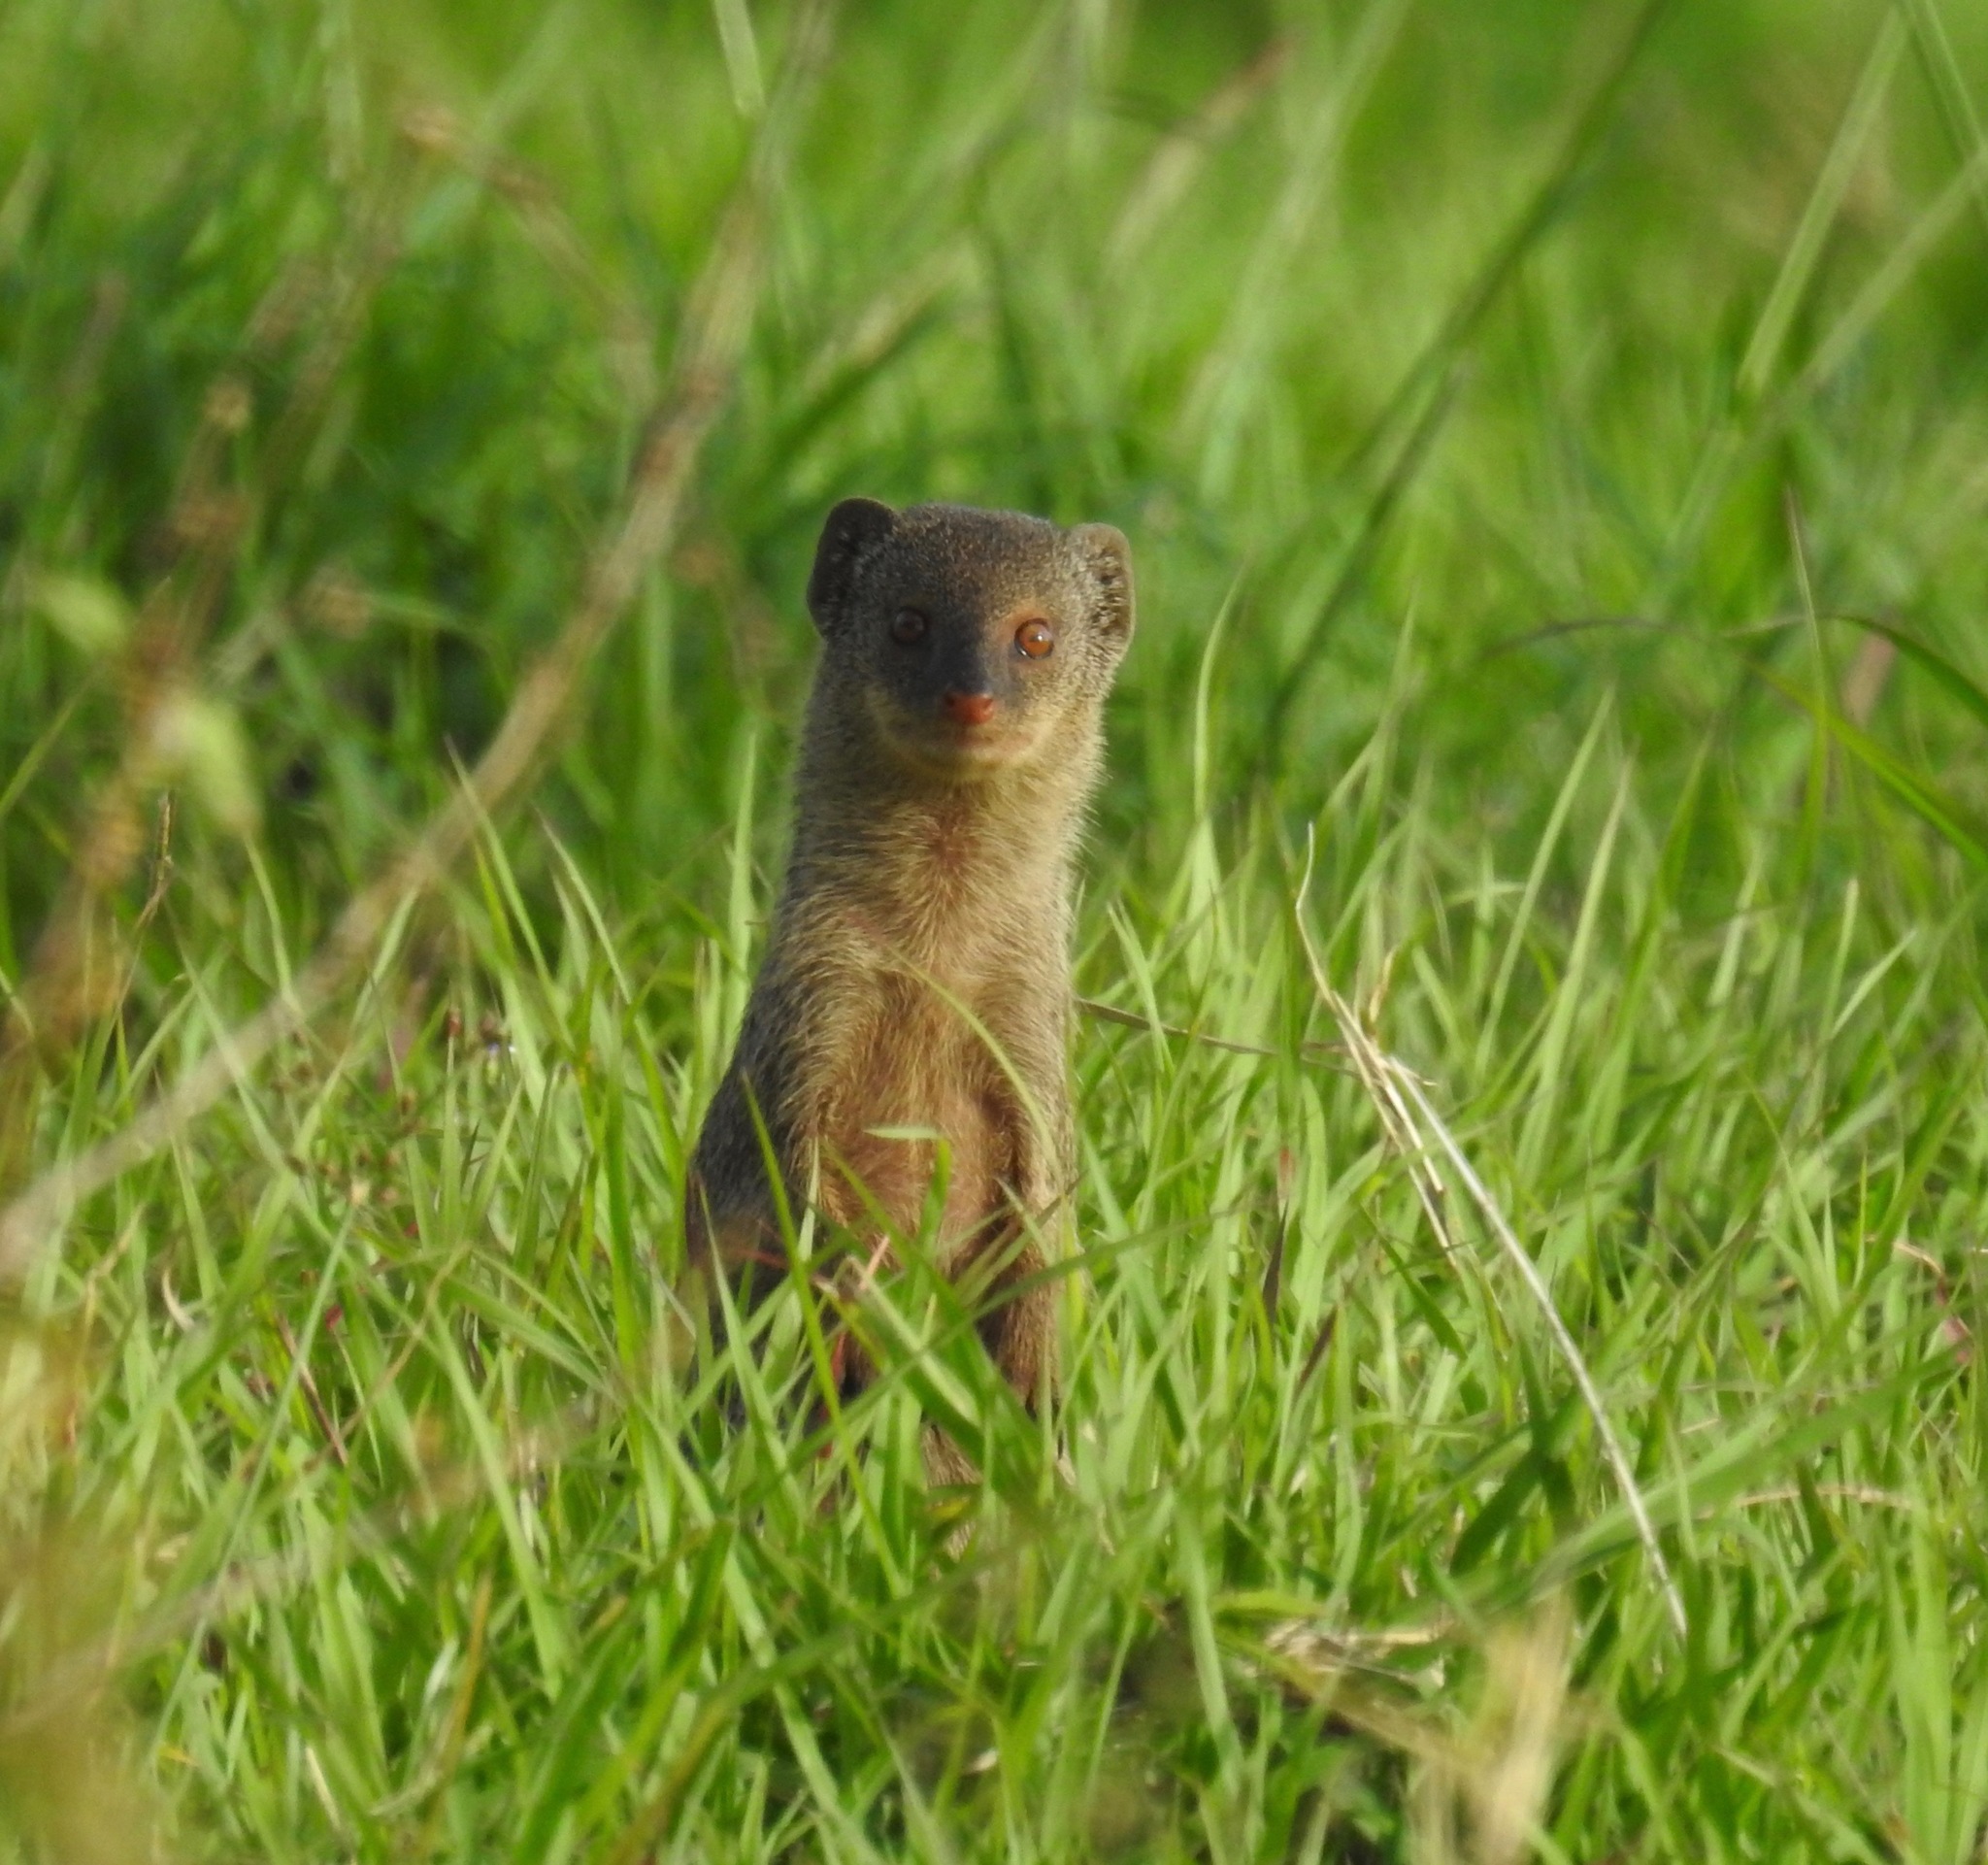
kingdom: Animalia
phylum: Chordata
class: Mammalia
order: Carnivora
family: Herpestidae
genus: Herpestes
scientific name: Herpestes javanicus
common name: Small asian mongoose
